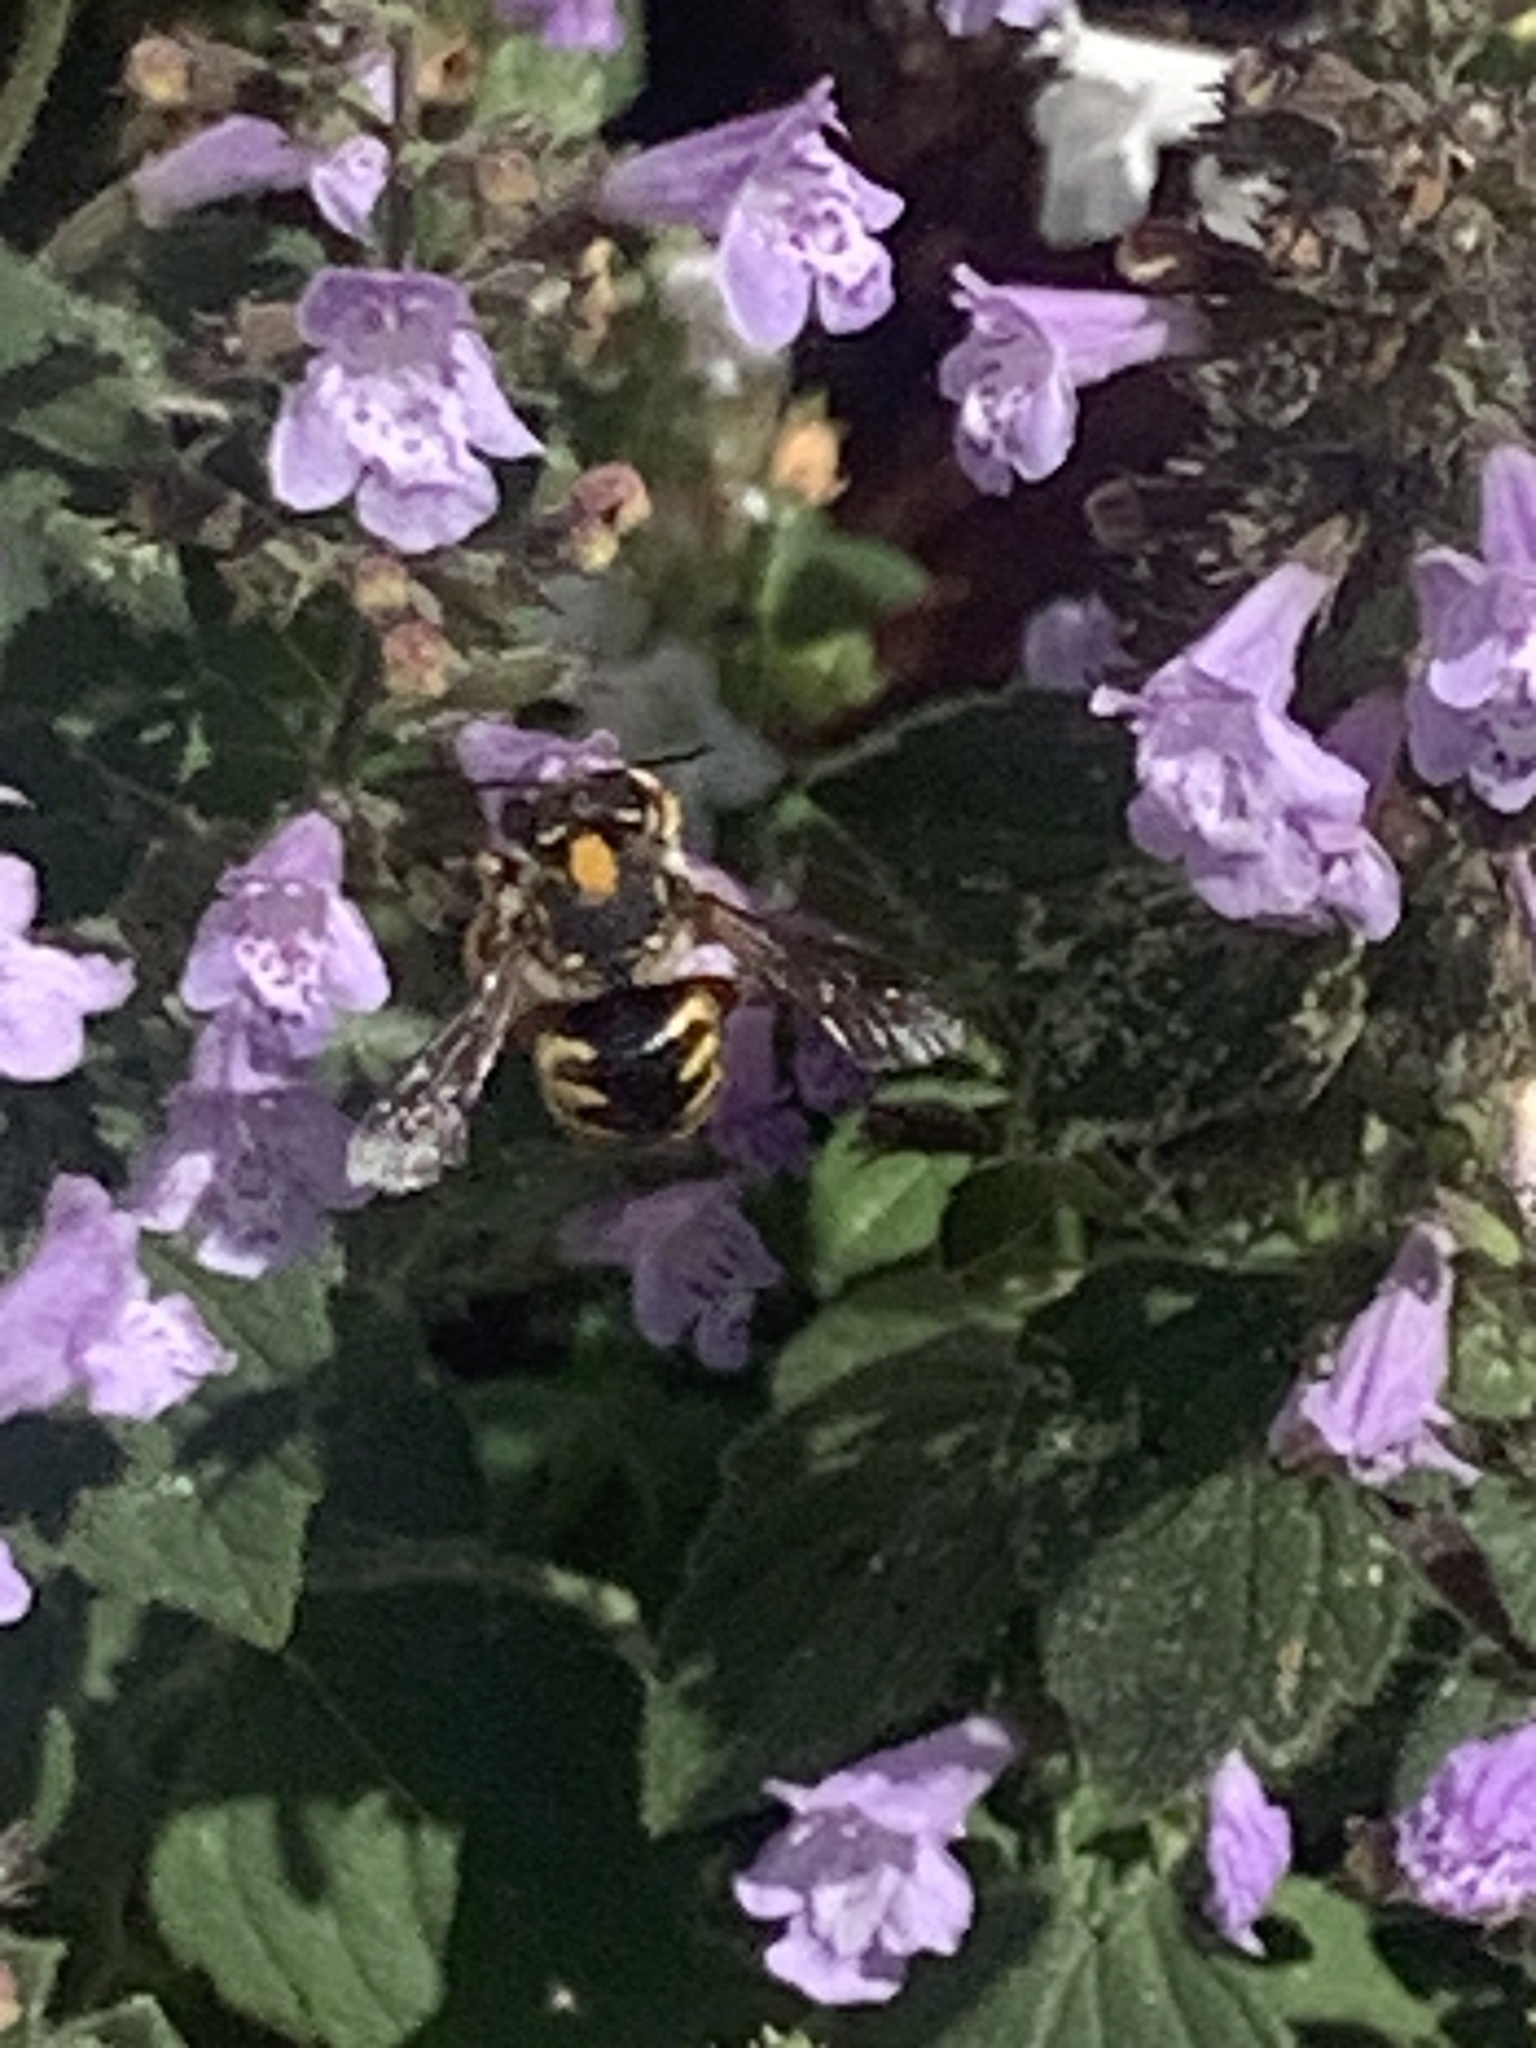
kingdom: Animalia
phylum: Arthropoda
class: Insecta
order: Hymenoptera
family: Megachilidae
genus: Anthidium
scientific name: Anthidium manicatum
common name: Wool carder bee
